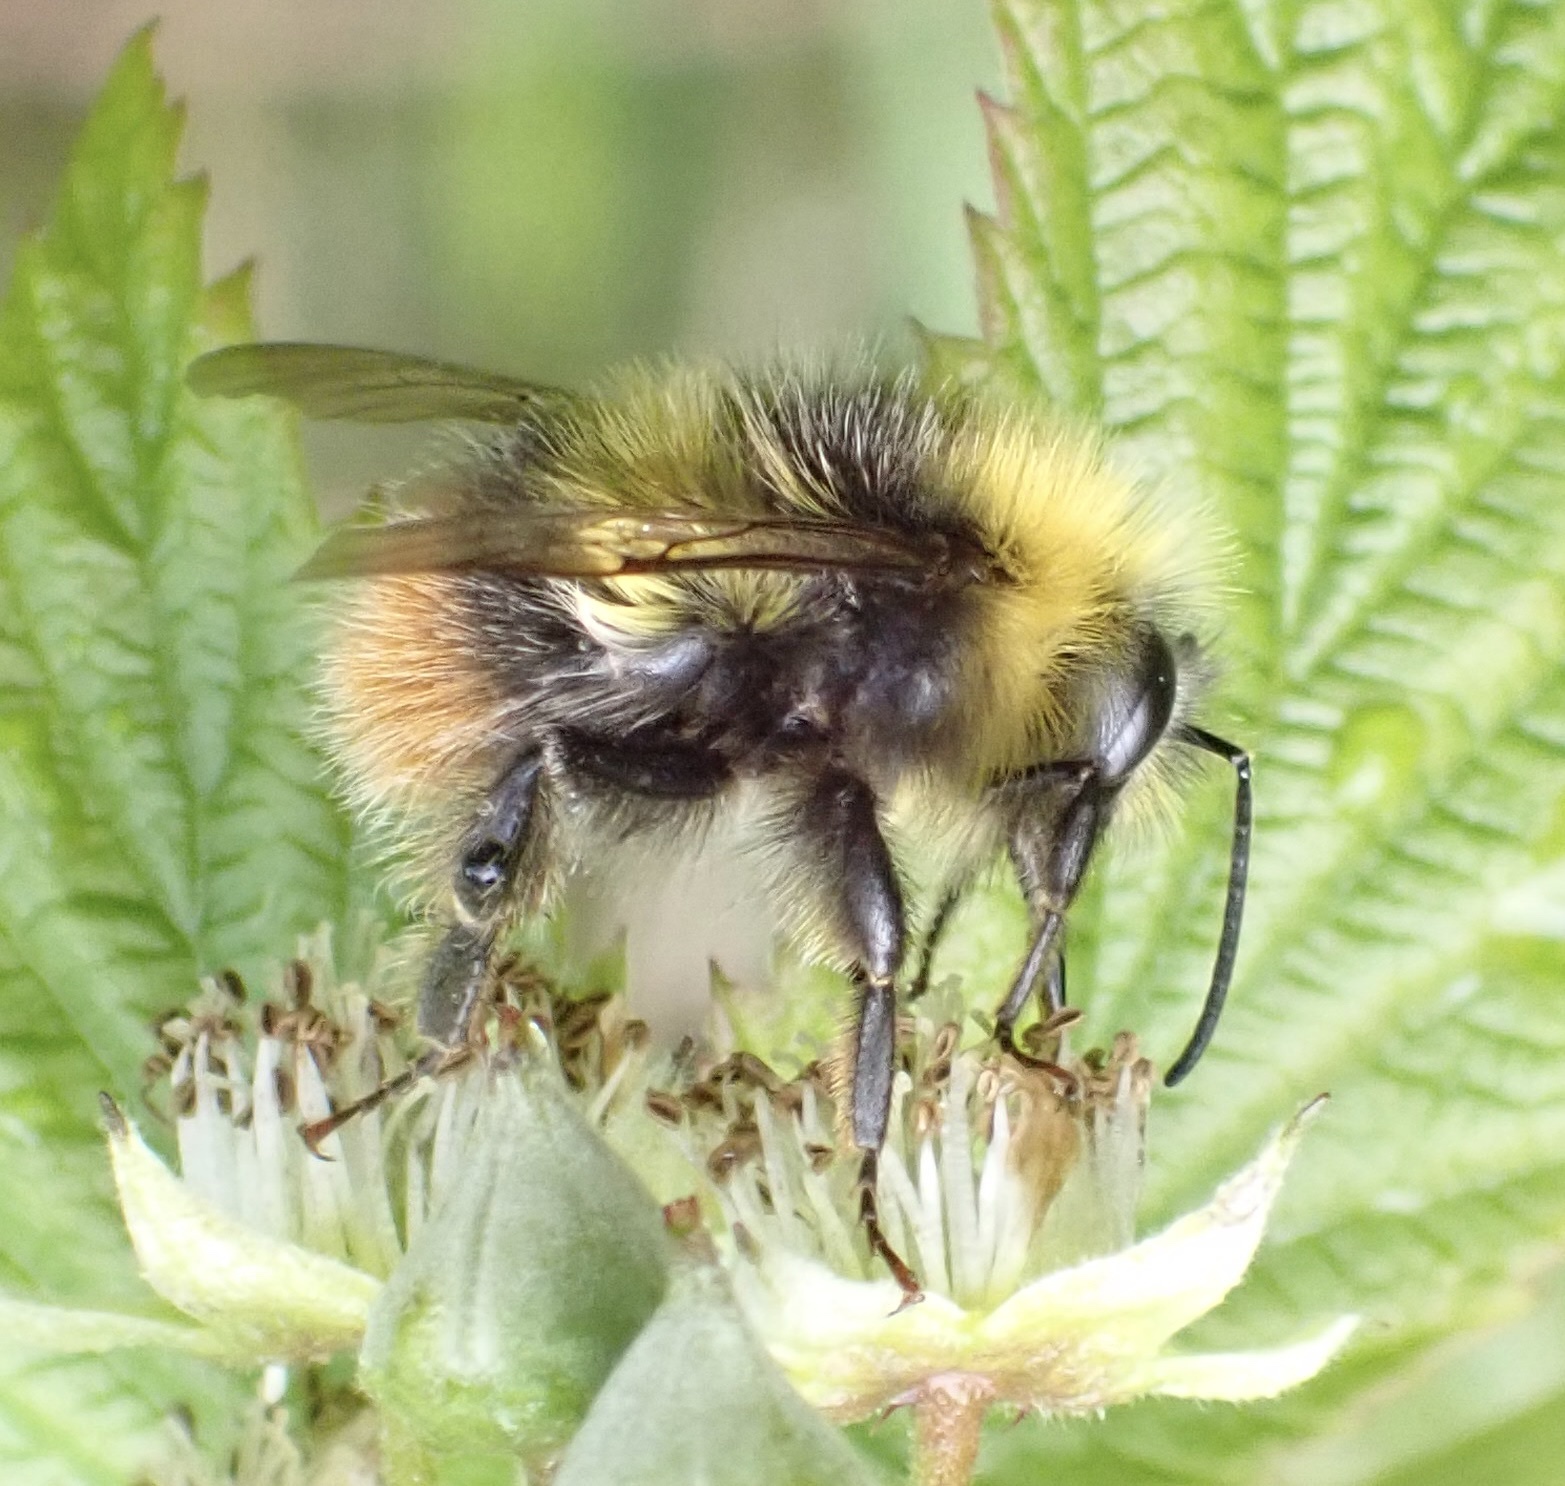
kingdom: Animalia
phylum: Arthropoda
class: Insecta
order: Hymenoptera
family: Apidae
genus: Bombus
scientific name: Bombus pratorum
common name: Early humble-bee
